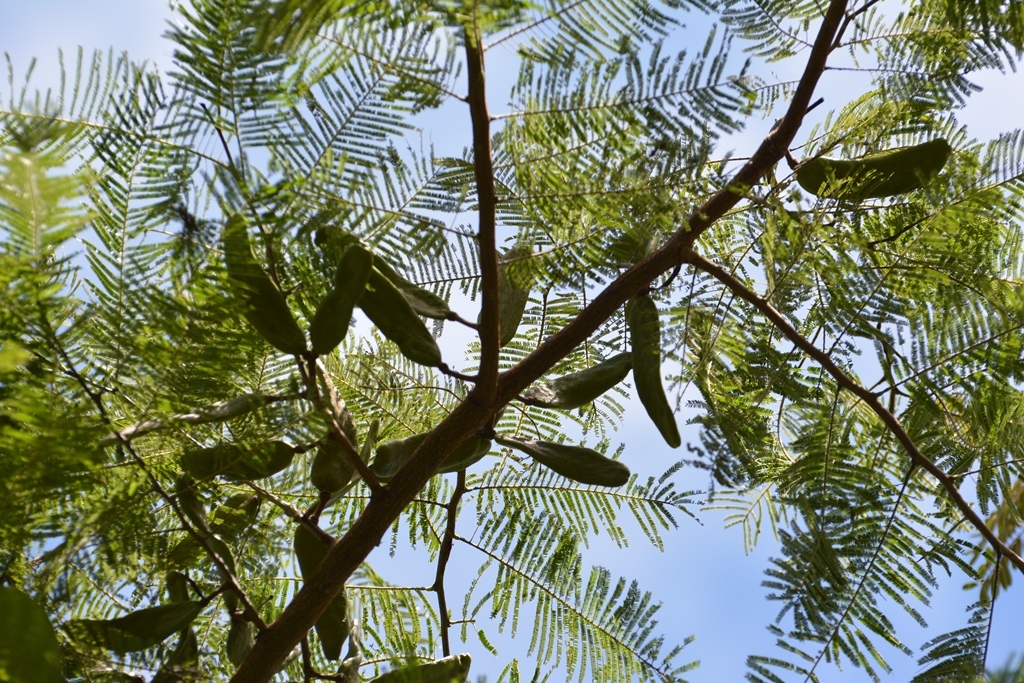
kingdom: Plantae
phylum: Tracheophyta
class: Magnoliopsida
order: Fabales
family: Fabaceae
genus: Vachellia
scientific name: Vachellia pennatula
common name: Fern-leaf acacia
